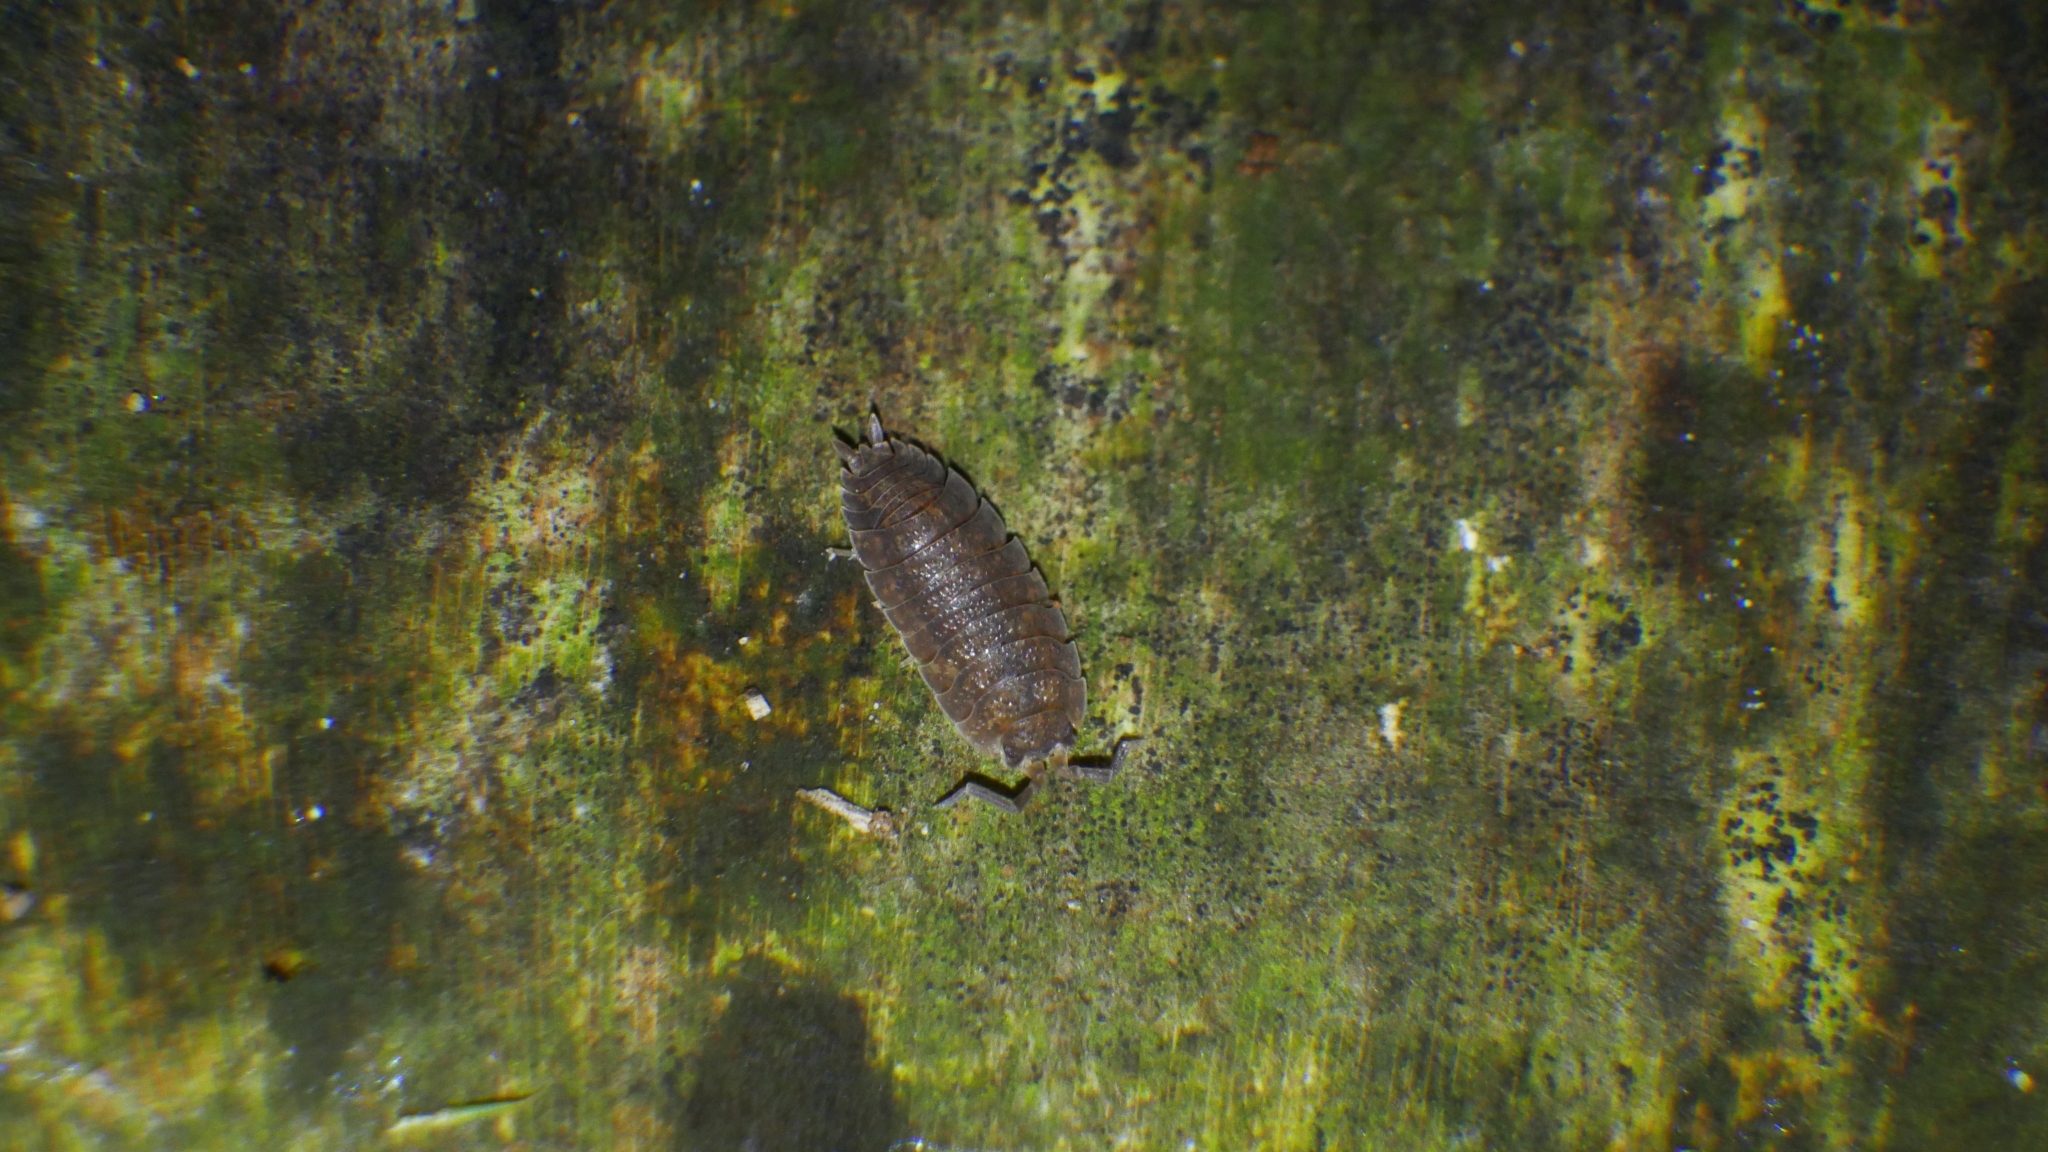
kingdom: Animalia
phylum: Arthropoda
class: Malacostraca
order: Isopoda
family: Porcellionidae
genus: Porcellio
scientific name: Porcellio scaber
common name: Common rough woodlouse
